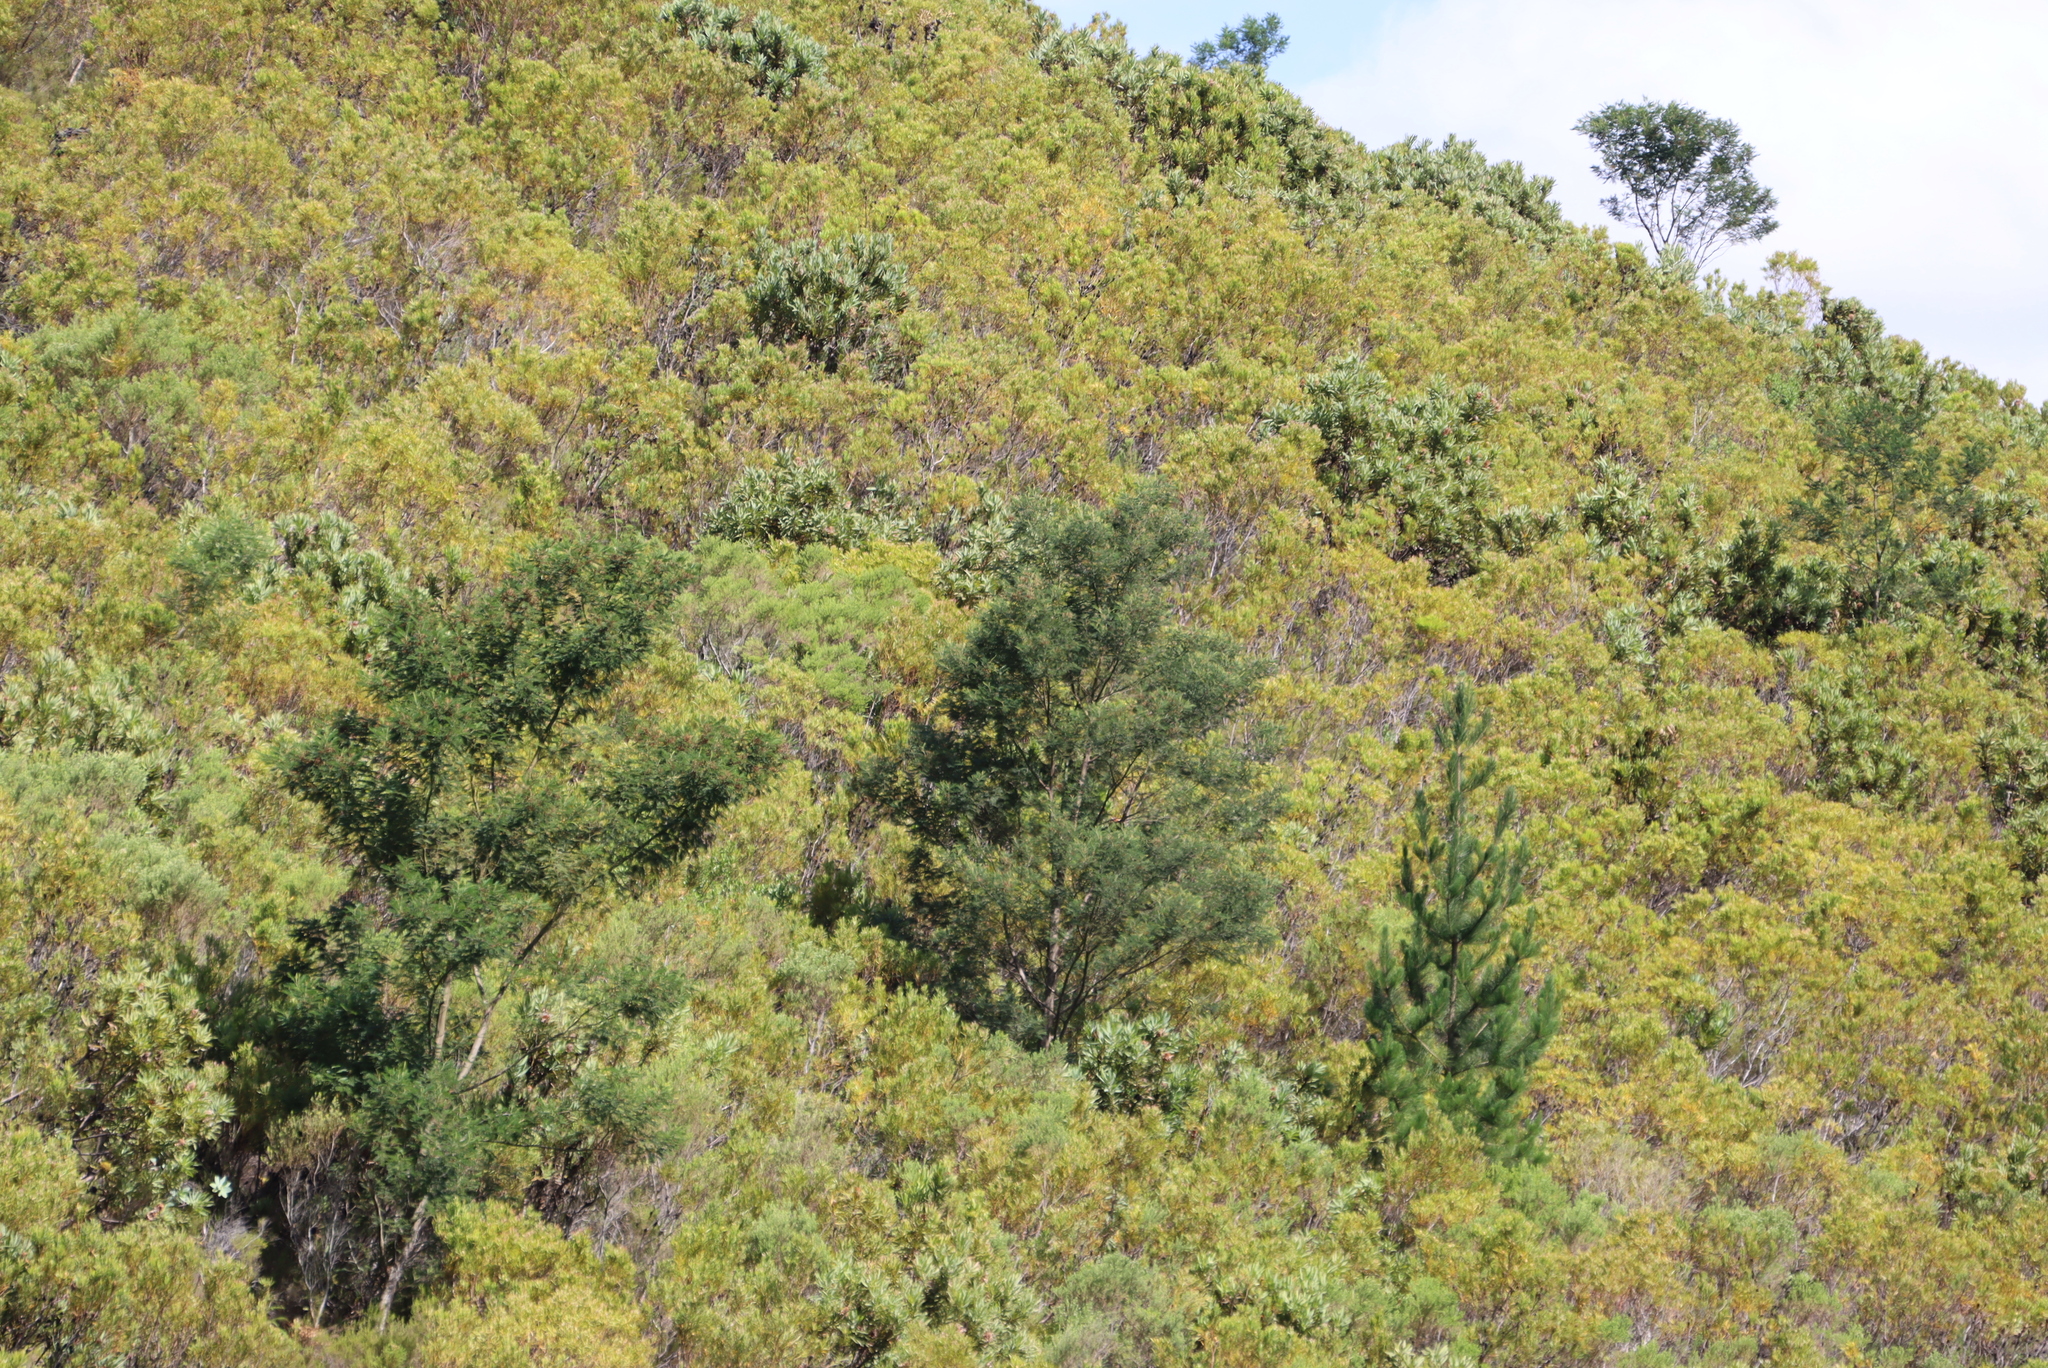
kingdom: Plantae
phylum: Tracheophyta
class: Magnoliopsida
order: Fabales
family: Fabaceae
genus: Acacia
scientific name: Acacia mearnsii
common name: Black wattle
